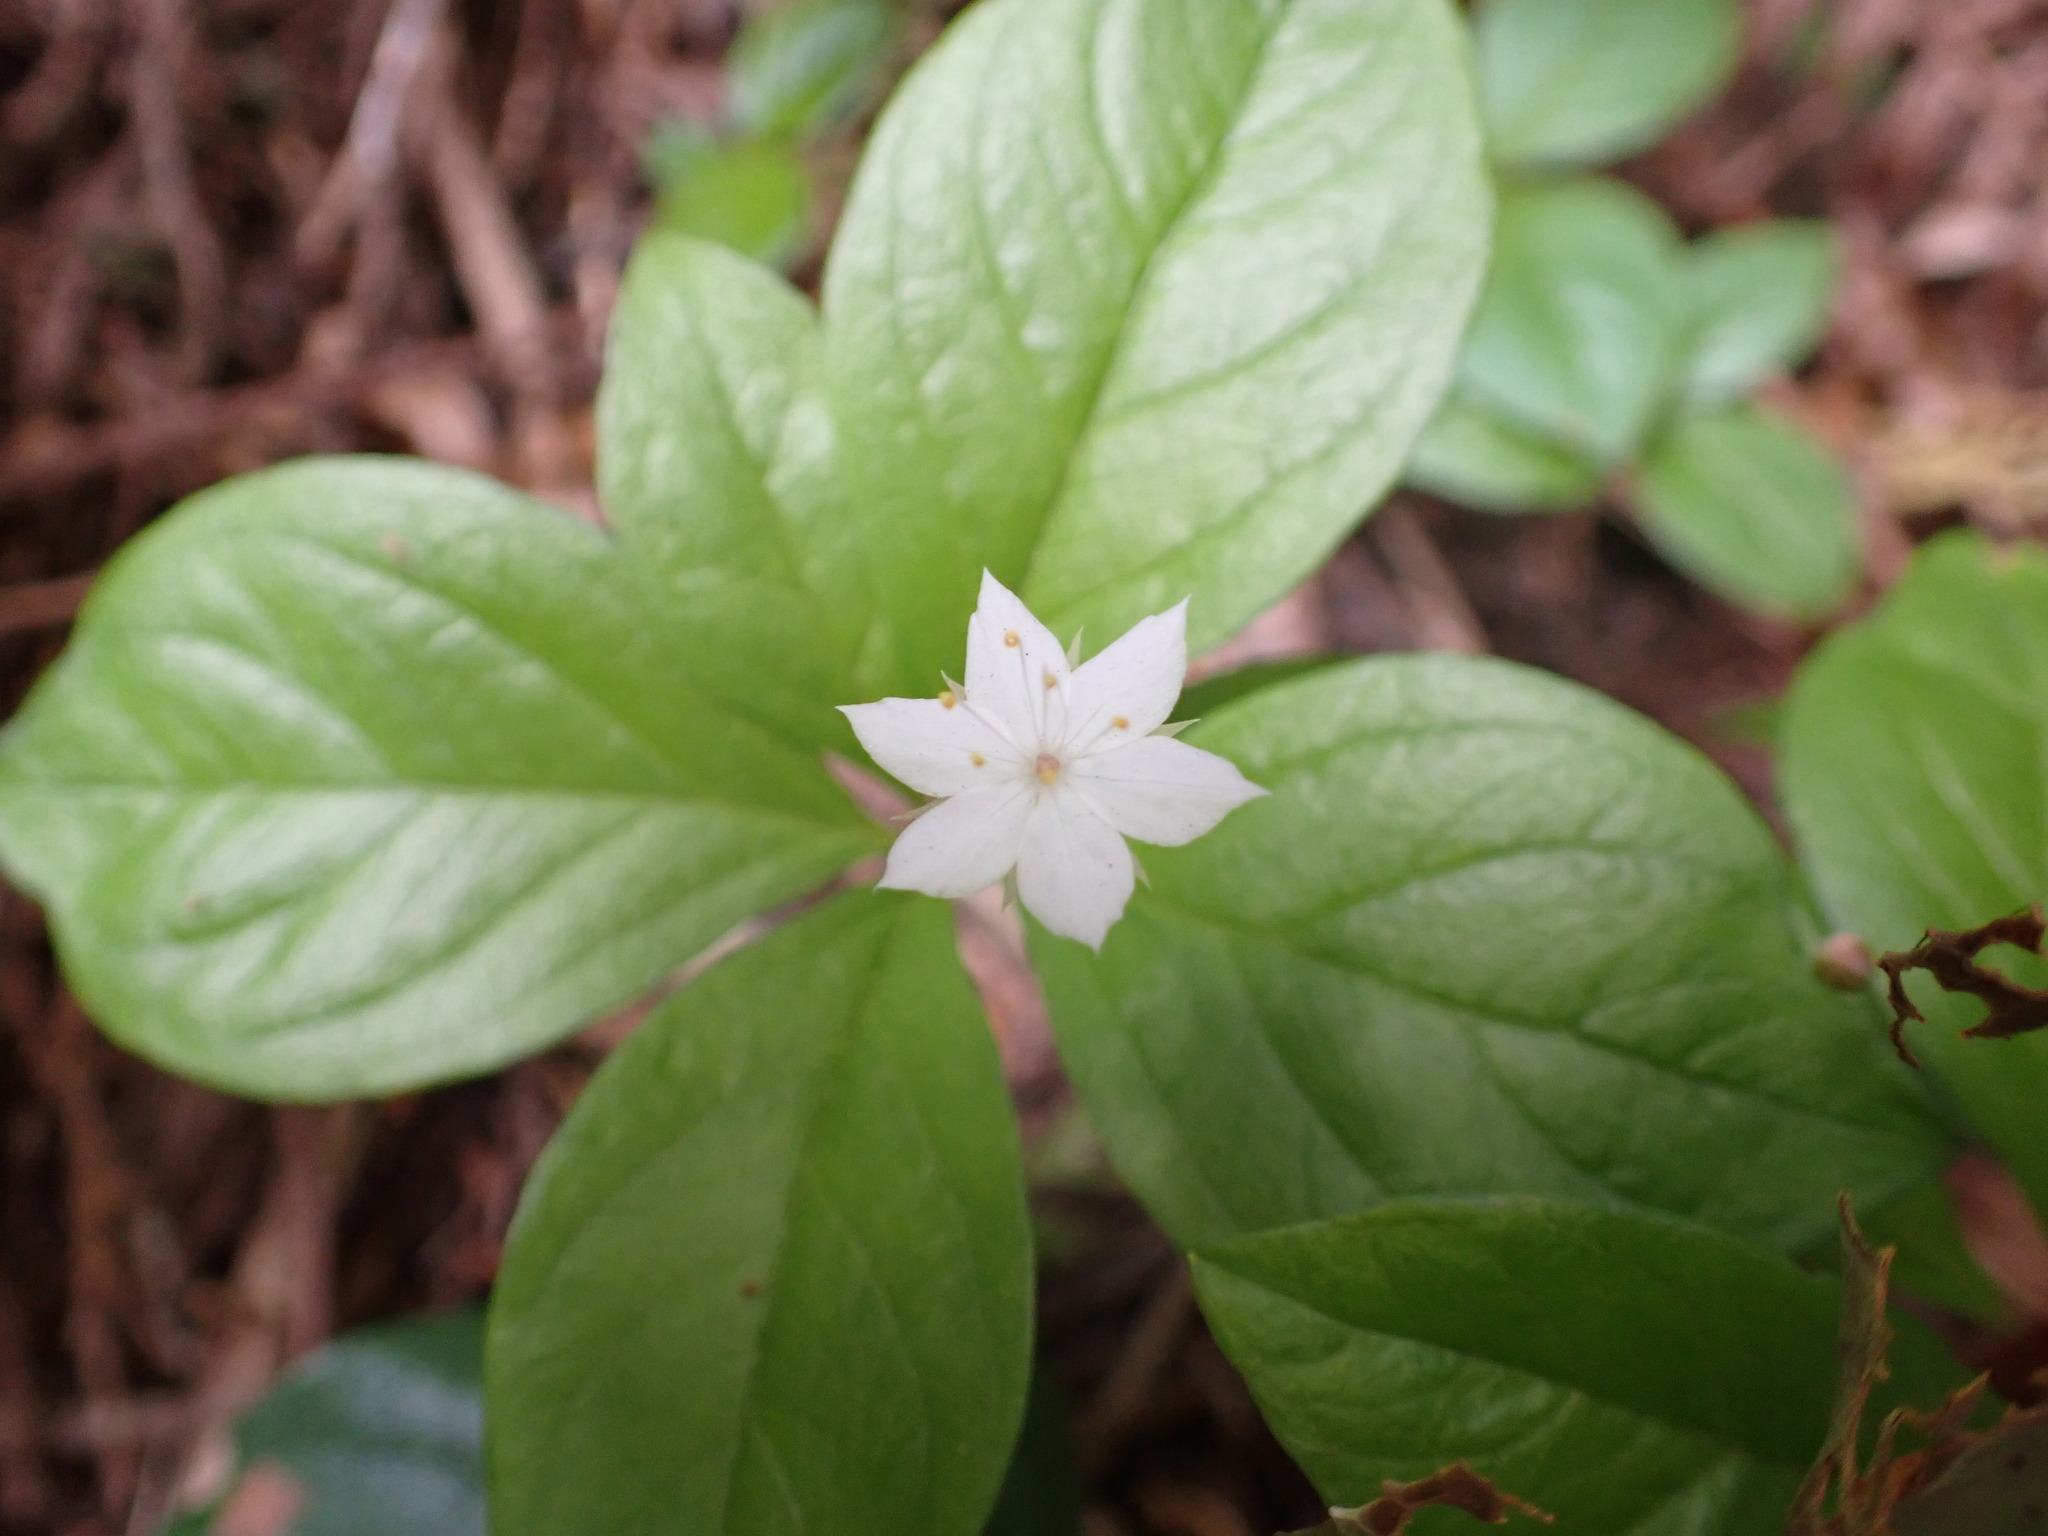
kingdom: Plantae
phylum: Tracheophyta
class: Magnoliopsida
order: Ericales
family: Primulaceae
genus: Lysimachia
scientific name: Lysimachia latifolia
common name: Pacific starflower
